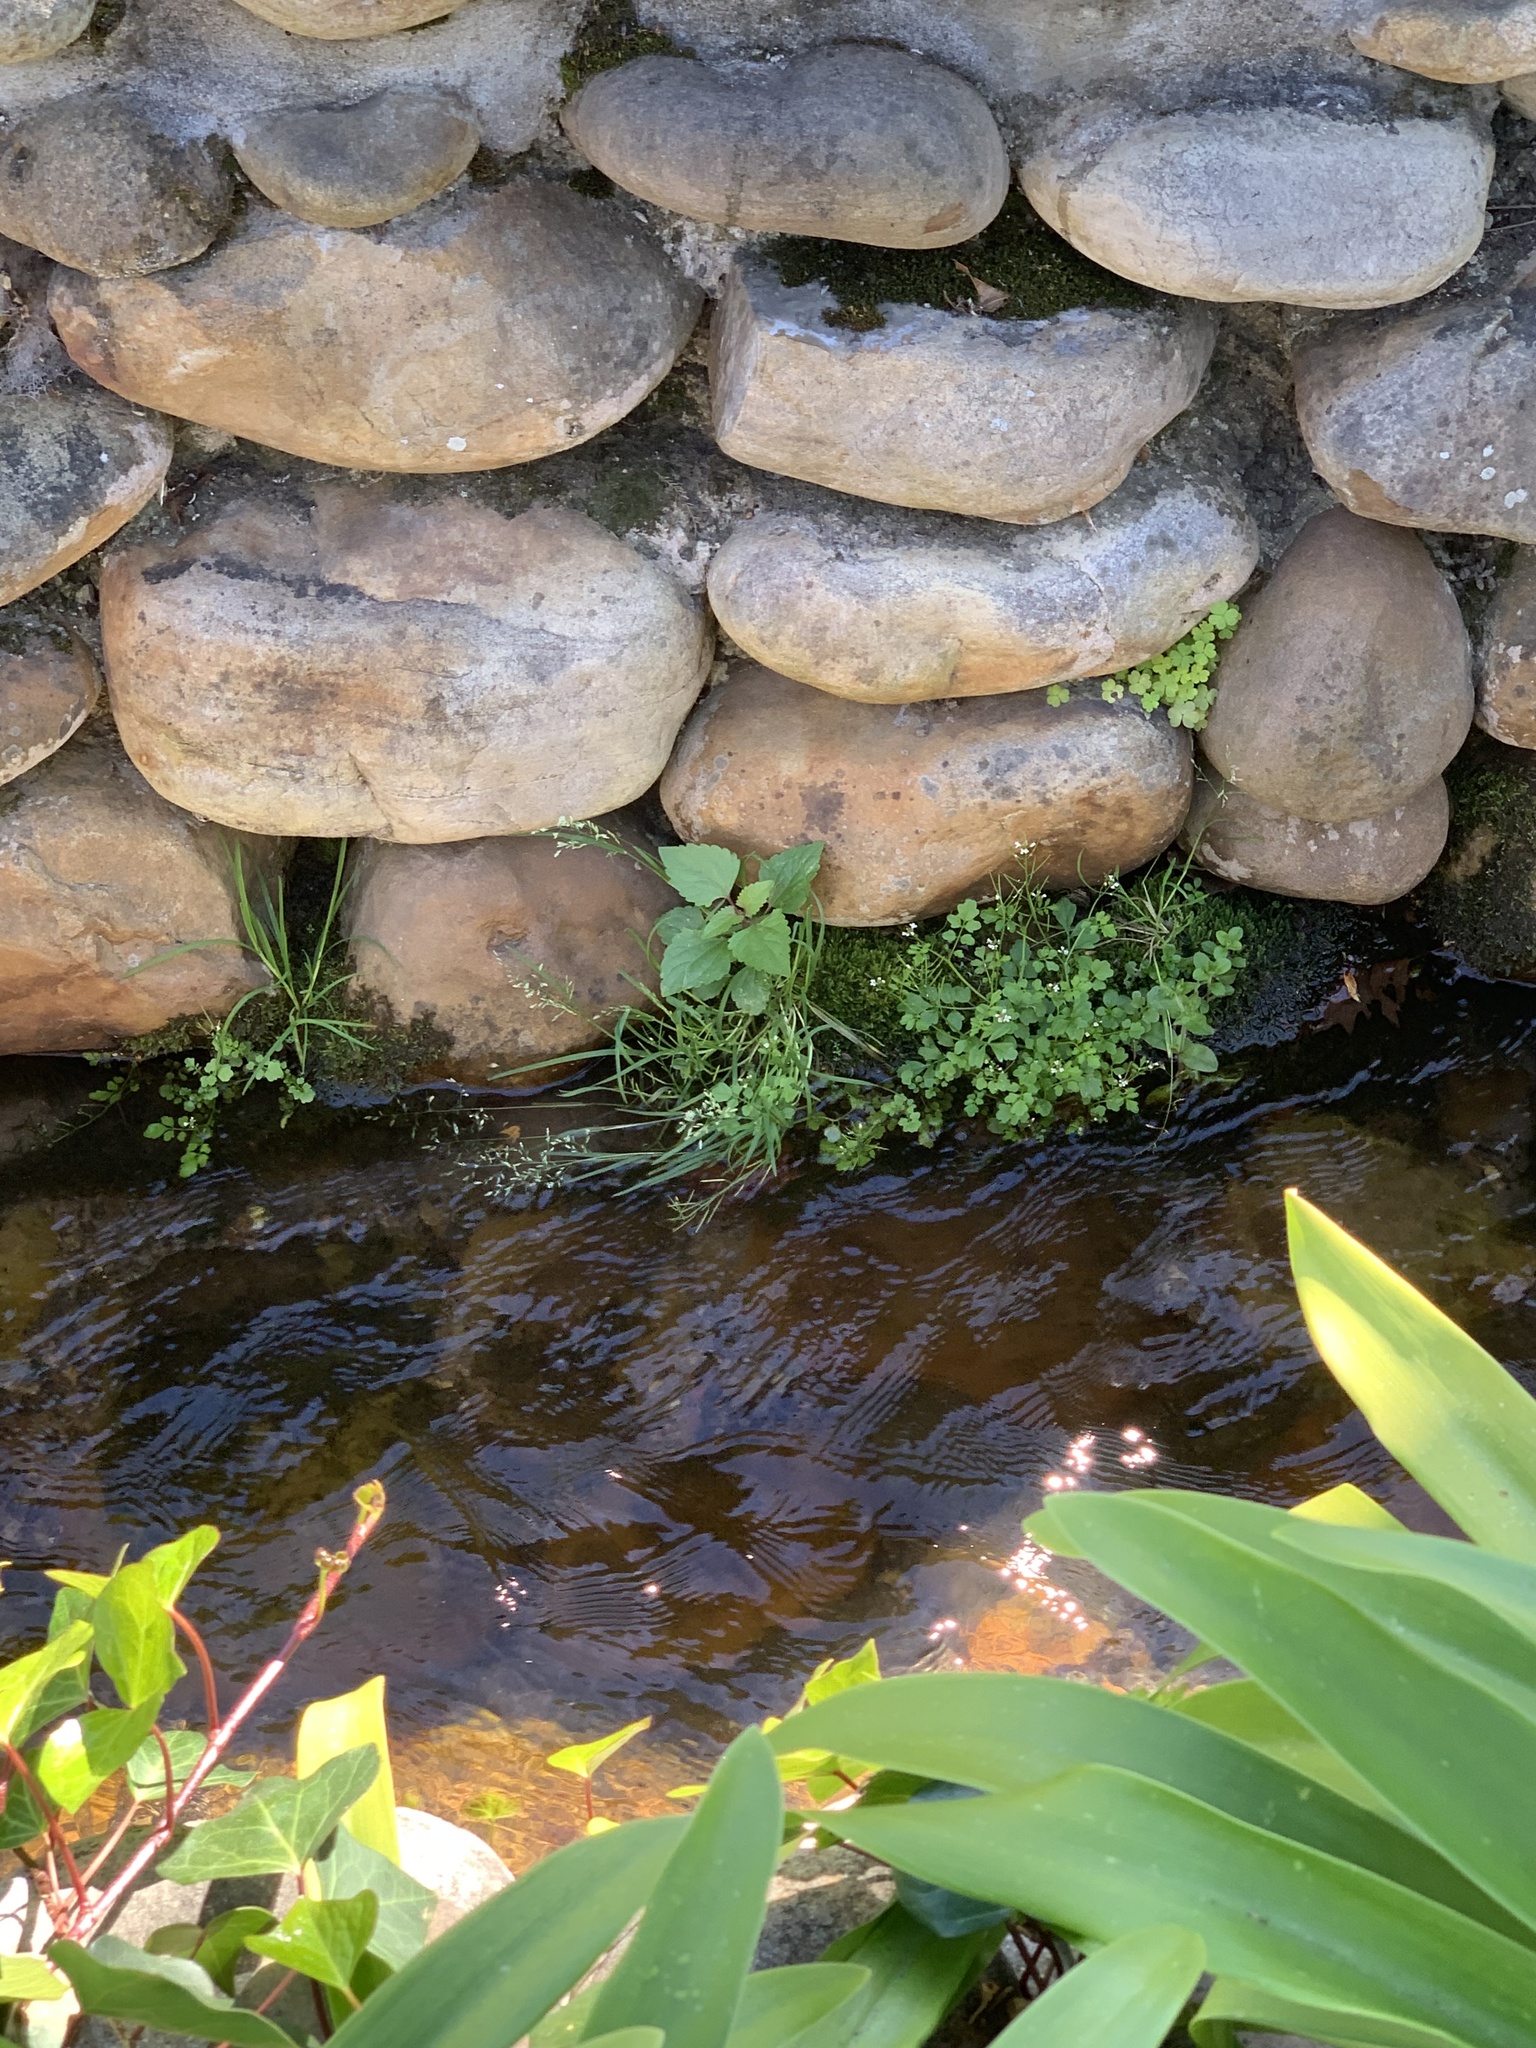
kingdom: Plantae
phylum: Tracheophyta
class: Magnoliopsida
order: Asterales
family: Asteraceae
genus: Ageratina
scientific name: Ageratina adenophora
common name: Sticky snakeroot
